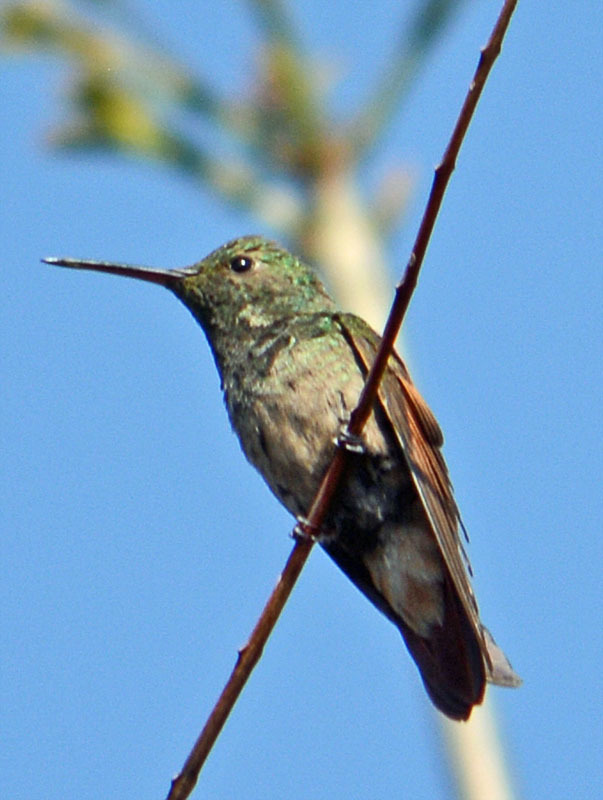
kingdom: Animalia
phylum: Chordata
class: Aves
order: Apodiformes
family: Trochilidae
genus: Saucerottia
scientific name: Saucerottia beryllina
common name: Berylline hummingbird
